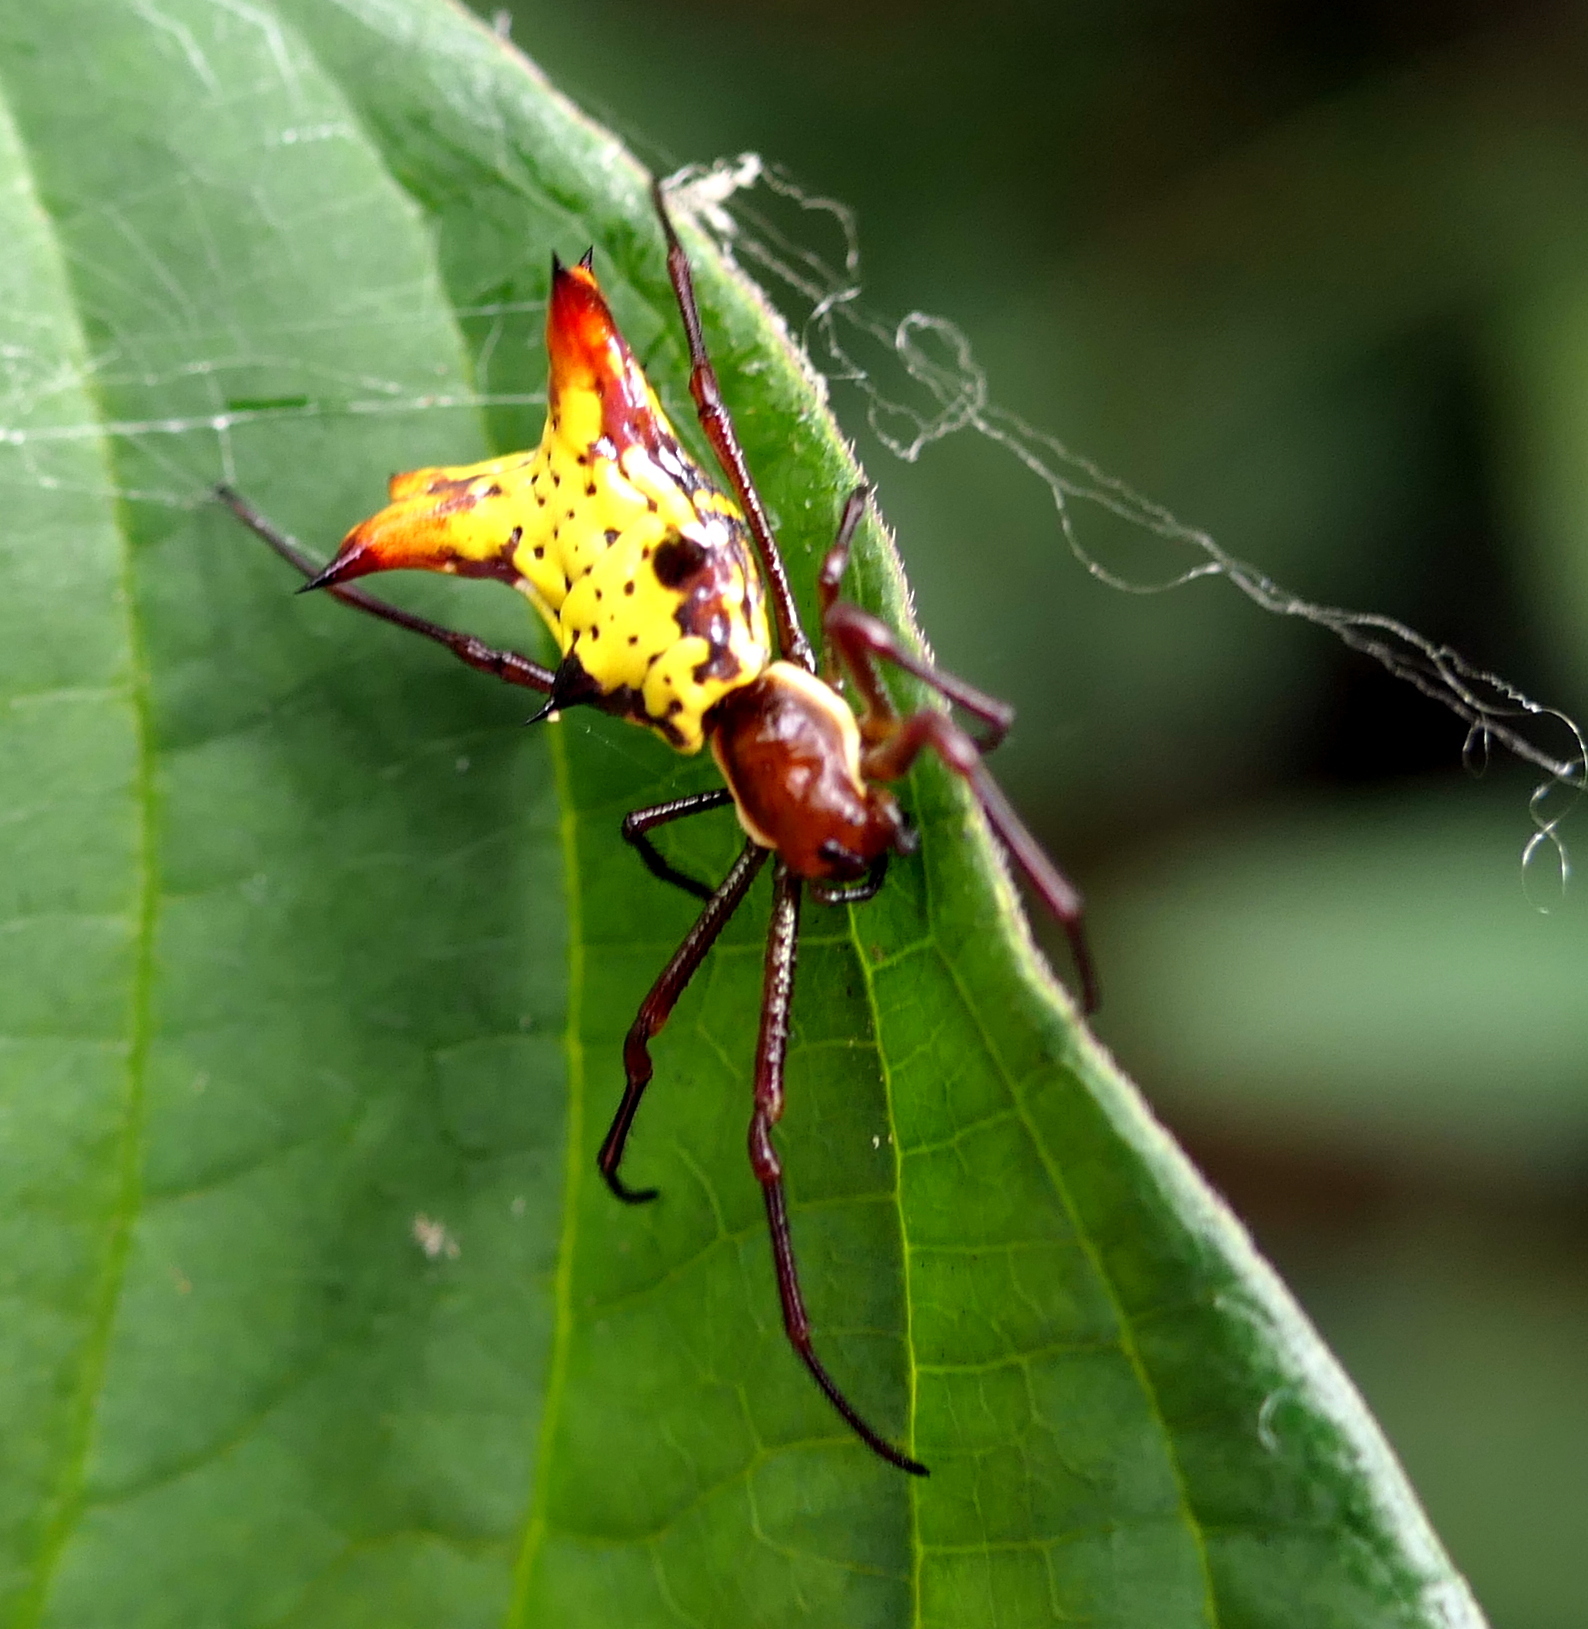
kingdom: Animalia
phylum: Arthropoda
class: Arachnida
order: Araneae
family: Araneidae
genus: Micrathena
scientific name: Micrathena fissispina
